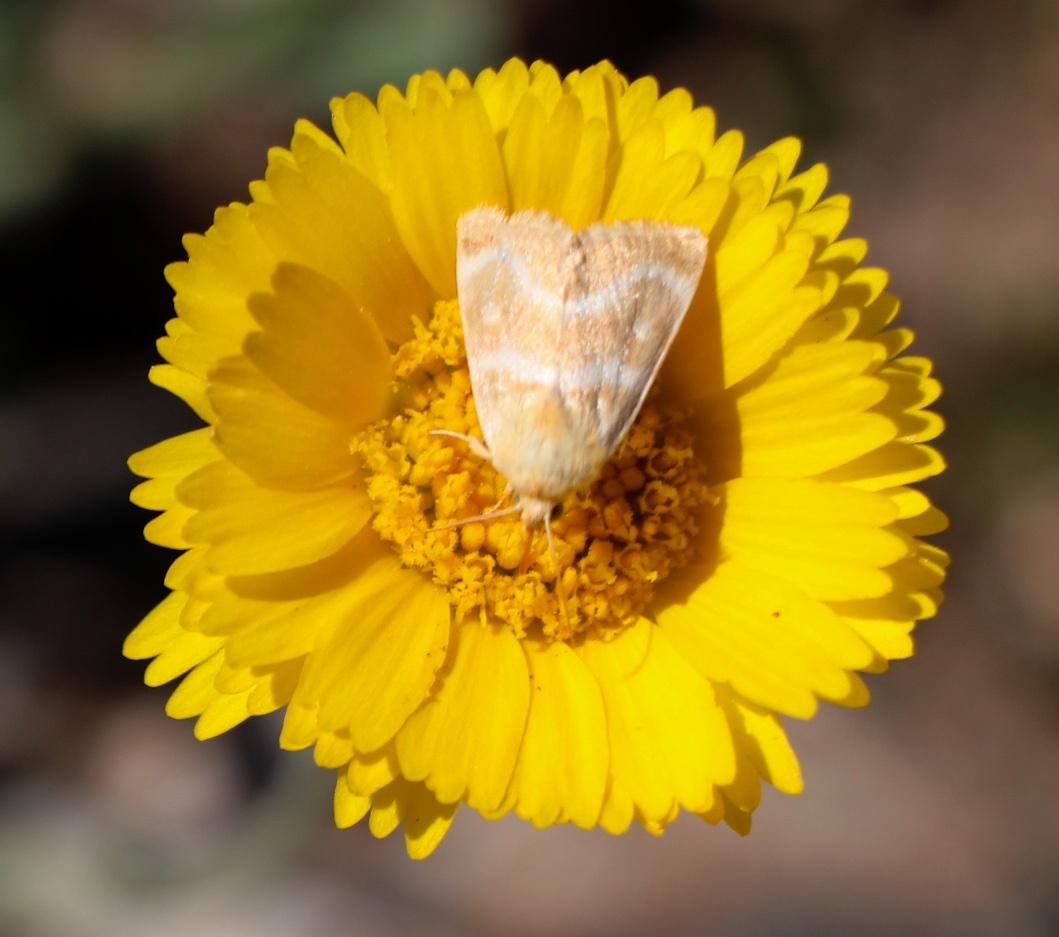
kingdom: Animalia
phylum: Arthropoda
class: Insecta
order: Lepidoptera
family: Noctuidae
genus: Schinia
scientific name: Schinia miniana
